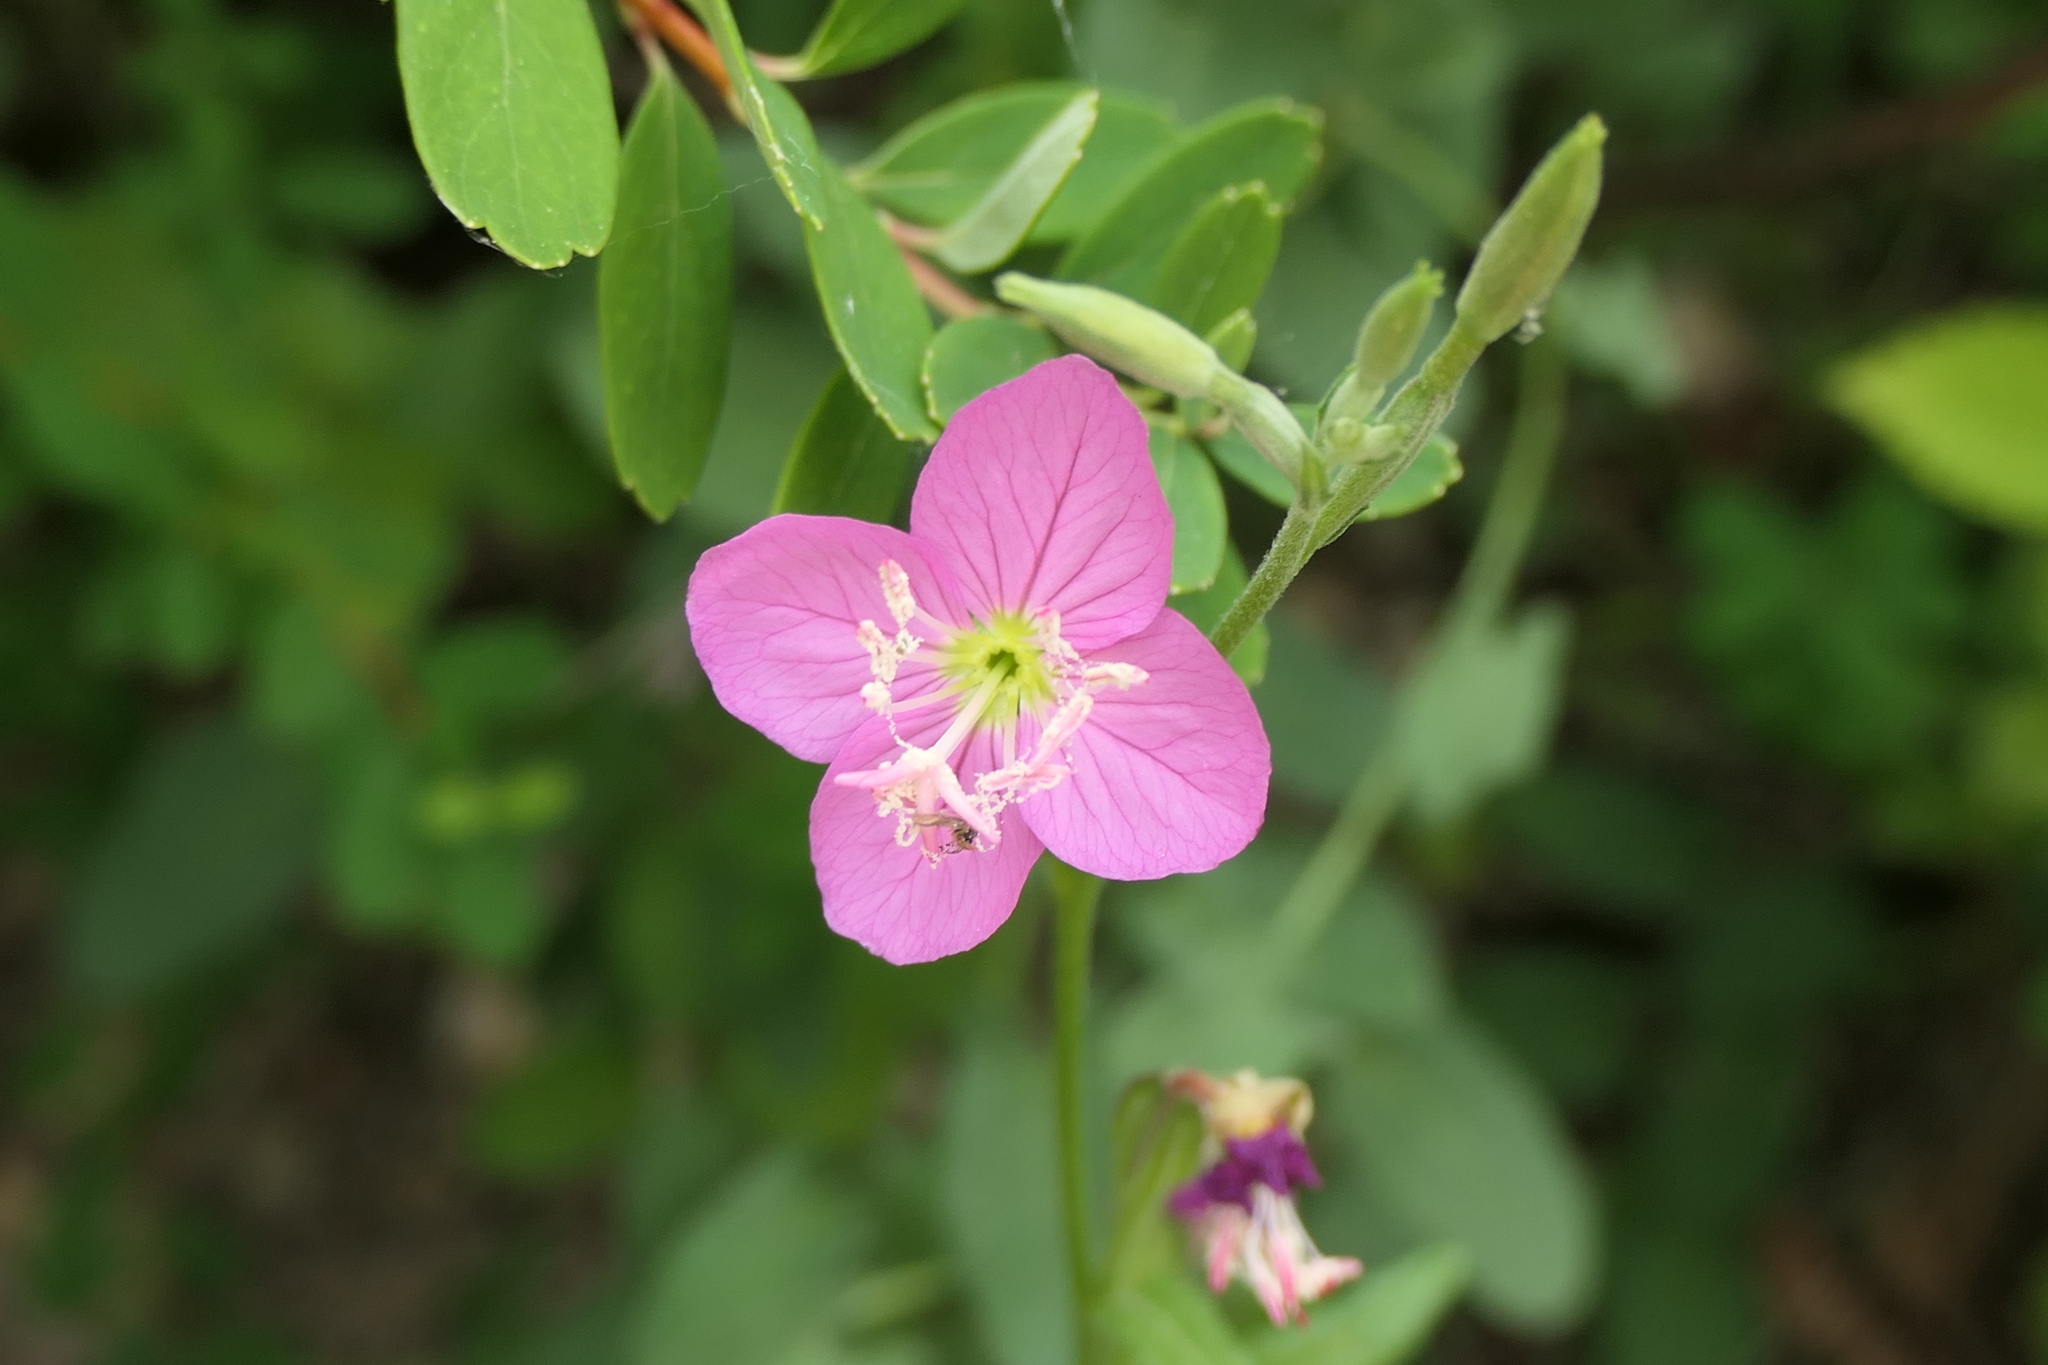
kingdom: Plantae
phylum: Tracheophyta
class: Magnoliopsida
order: Myrtales
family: Onagraceae
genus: Oenothera
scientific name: Oenothera rosea
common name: Rosy evening-primrose
